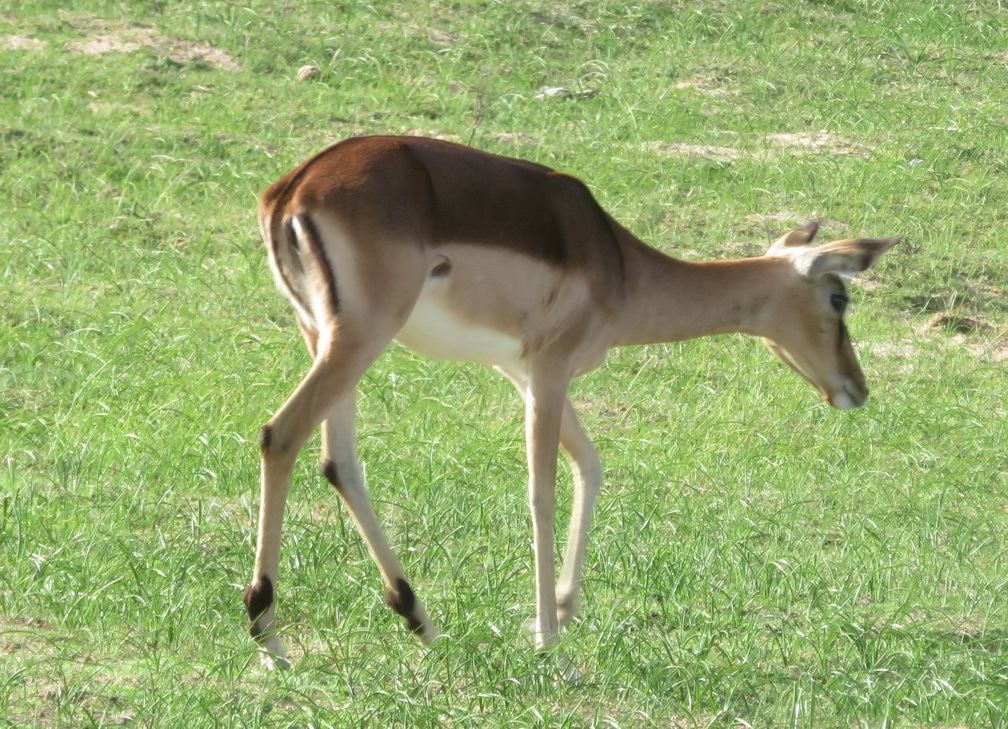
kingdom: Animalia
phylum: Chordata
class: Mammalia
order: Artiodactyla
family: Bovidae
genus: Aepyceros
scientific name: Aepyceros melampus
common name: Impala
